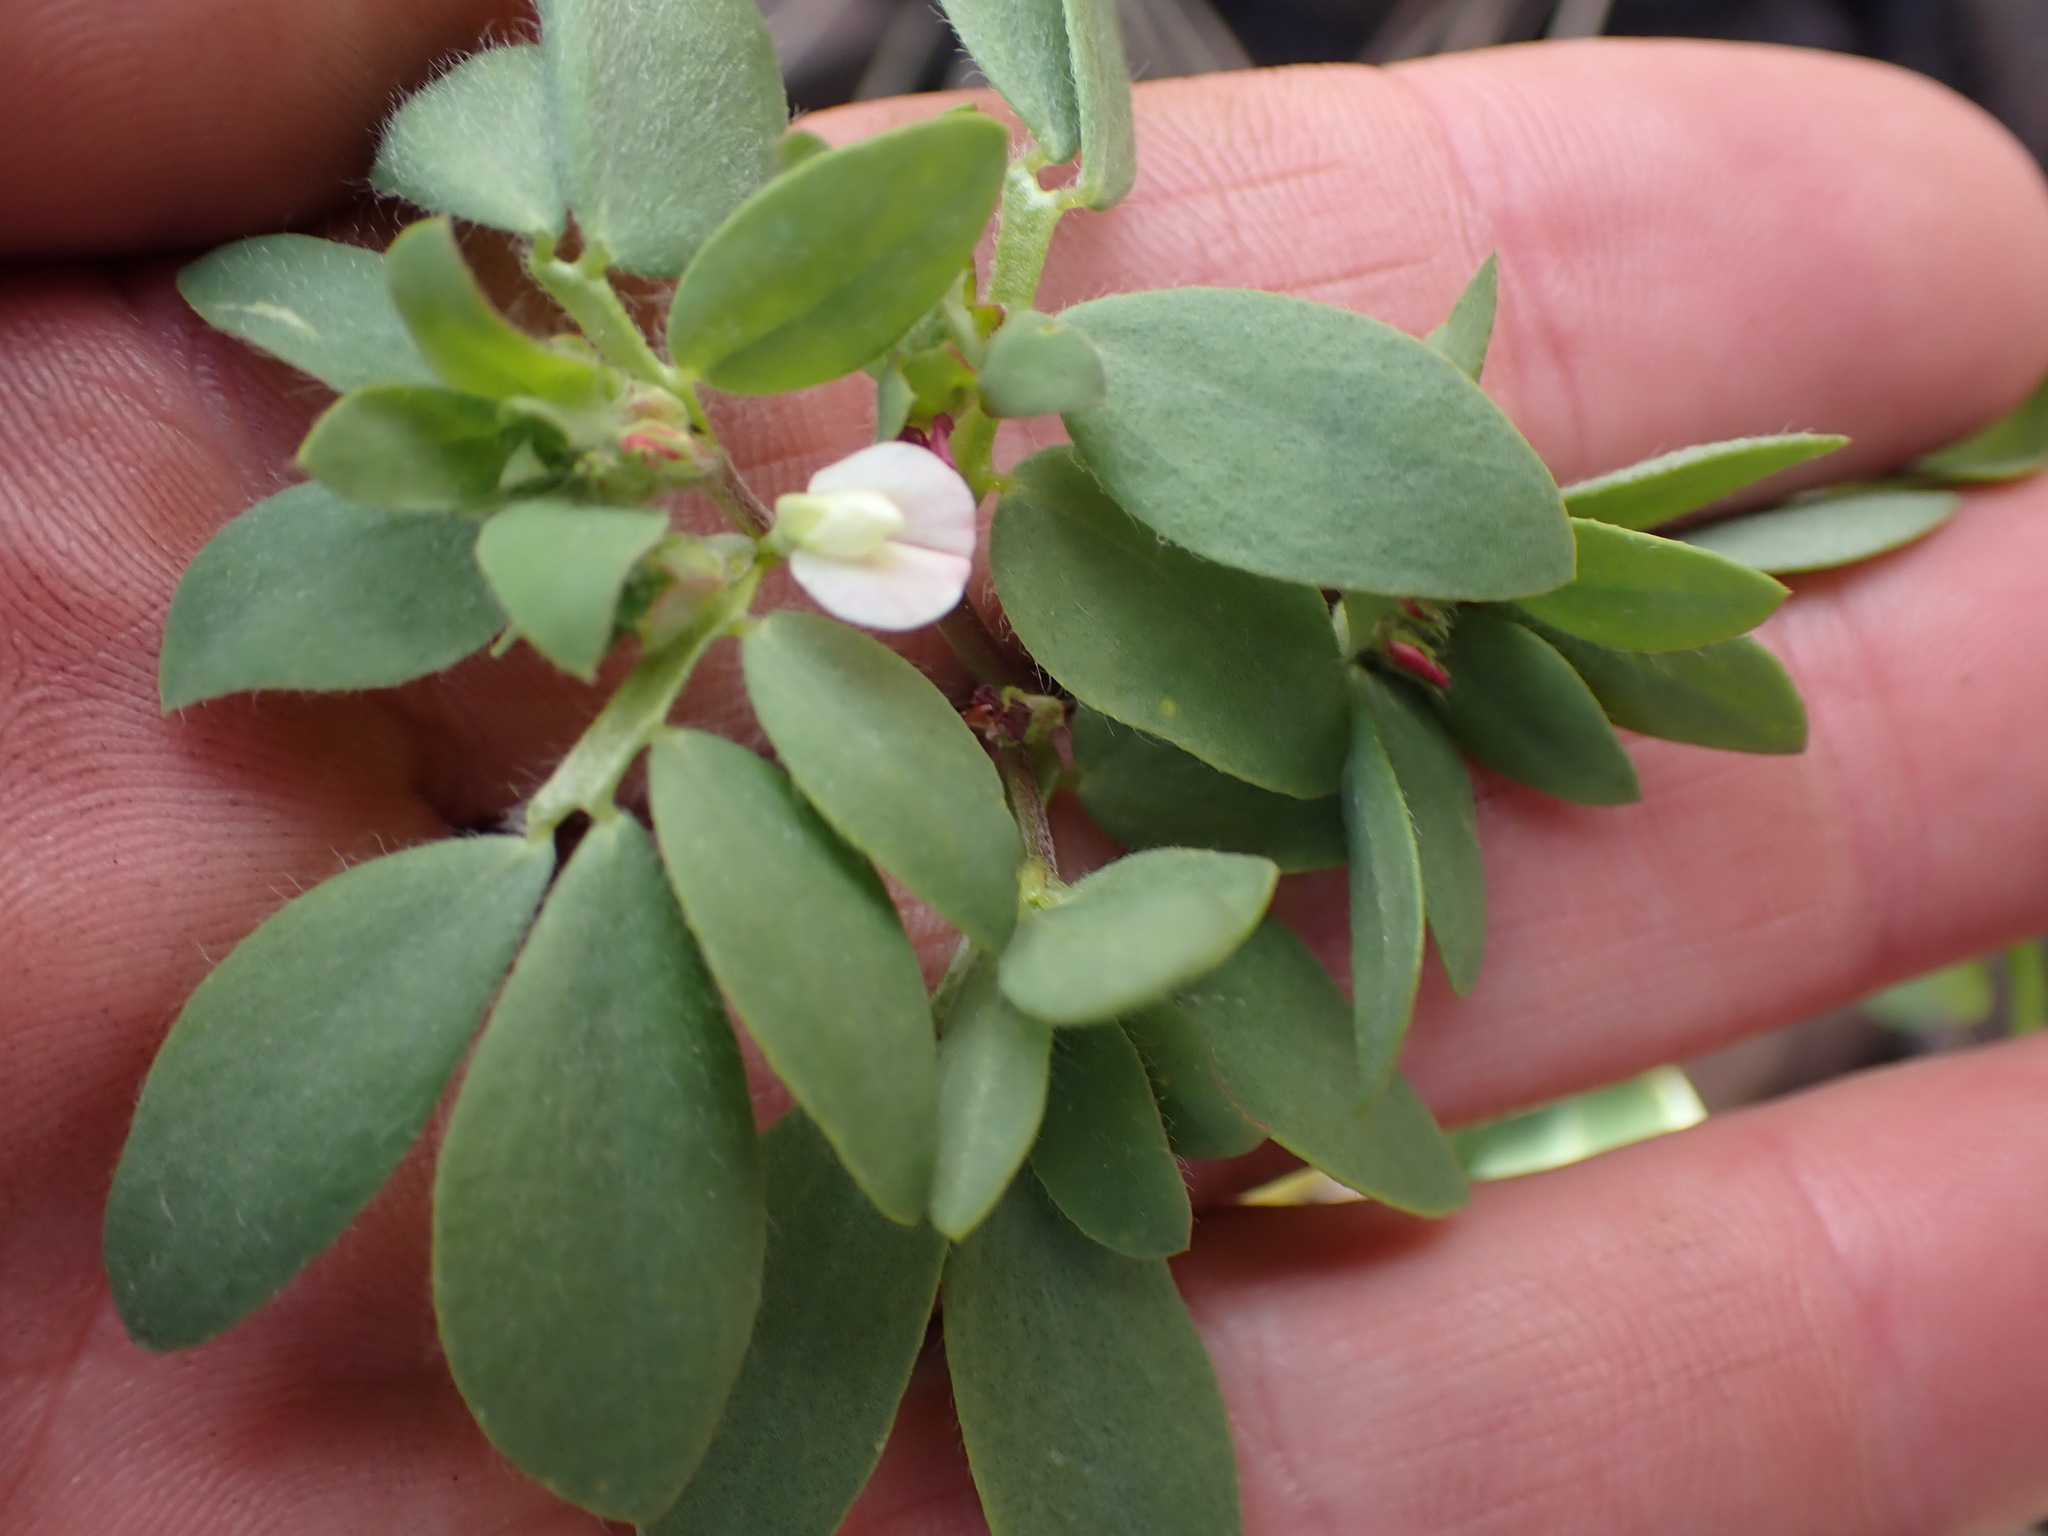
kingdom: Plantae
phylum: Tracheophyta
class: Magnoliopsida
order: Fabales
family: Fabaceae
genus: Acmispon
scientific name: Acmispon denticulatus
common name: Meadow bird's-foot trefoil
